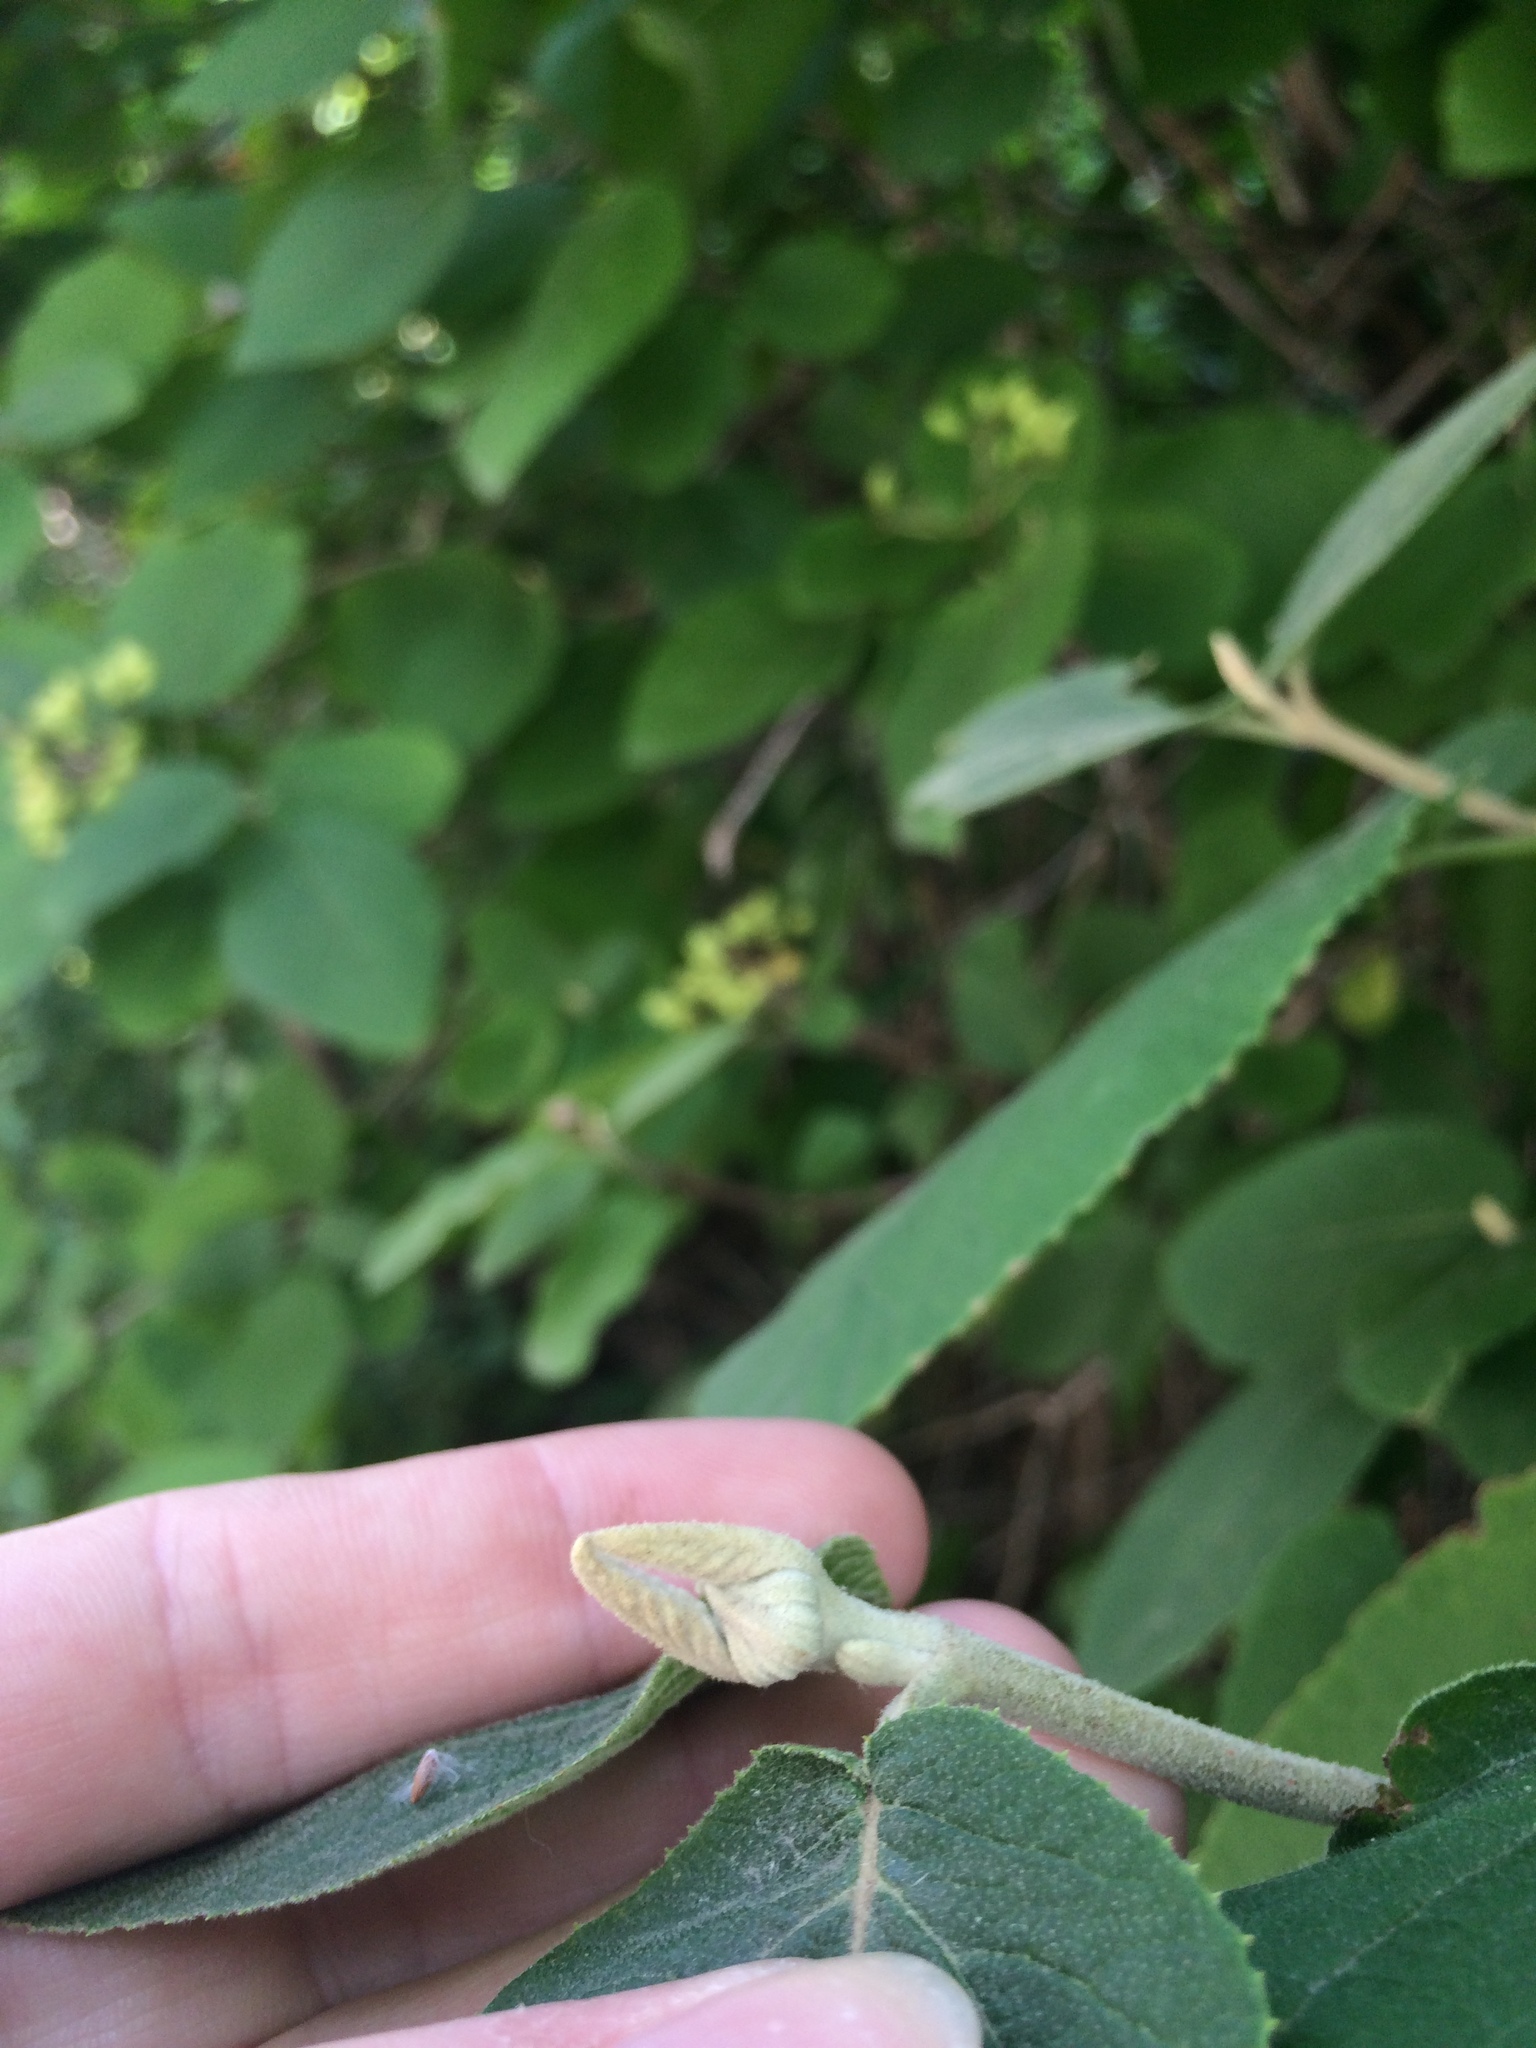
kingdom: Plantae
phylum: Tracheophyta
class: Magnoliopsida
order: Dipsacales
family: Viburnaceae
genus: Viburnum
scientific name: Viburnum lantana
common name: Wayfaring tree
